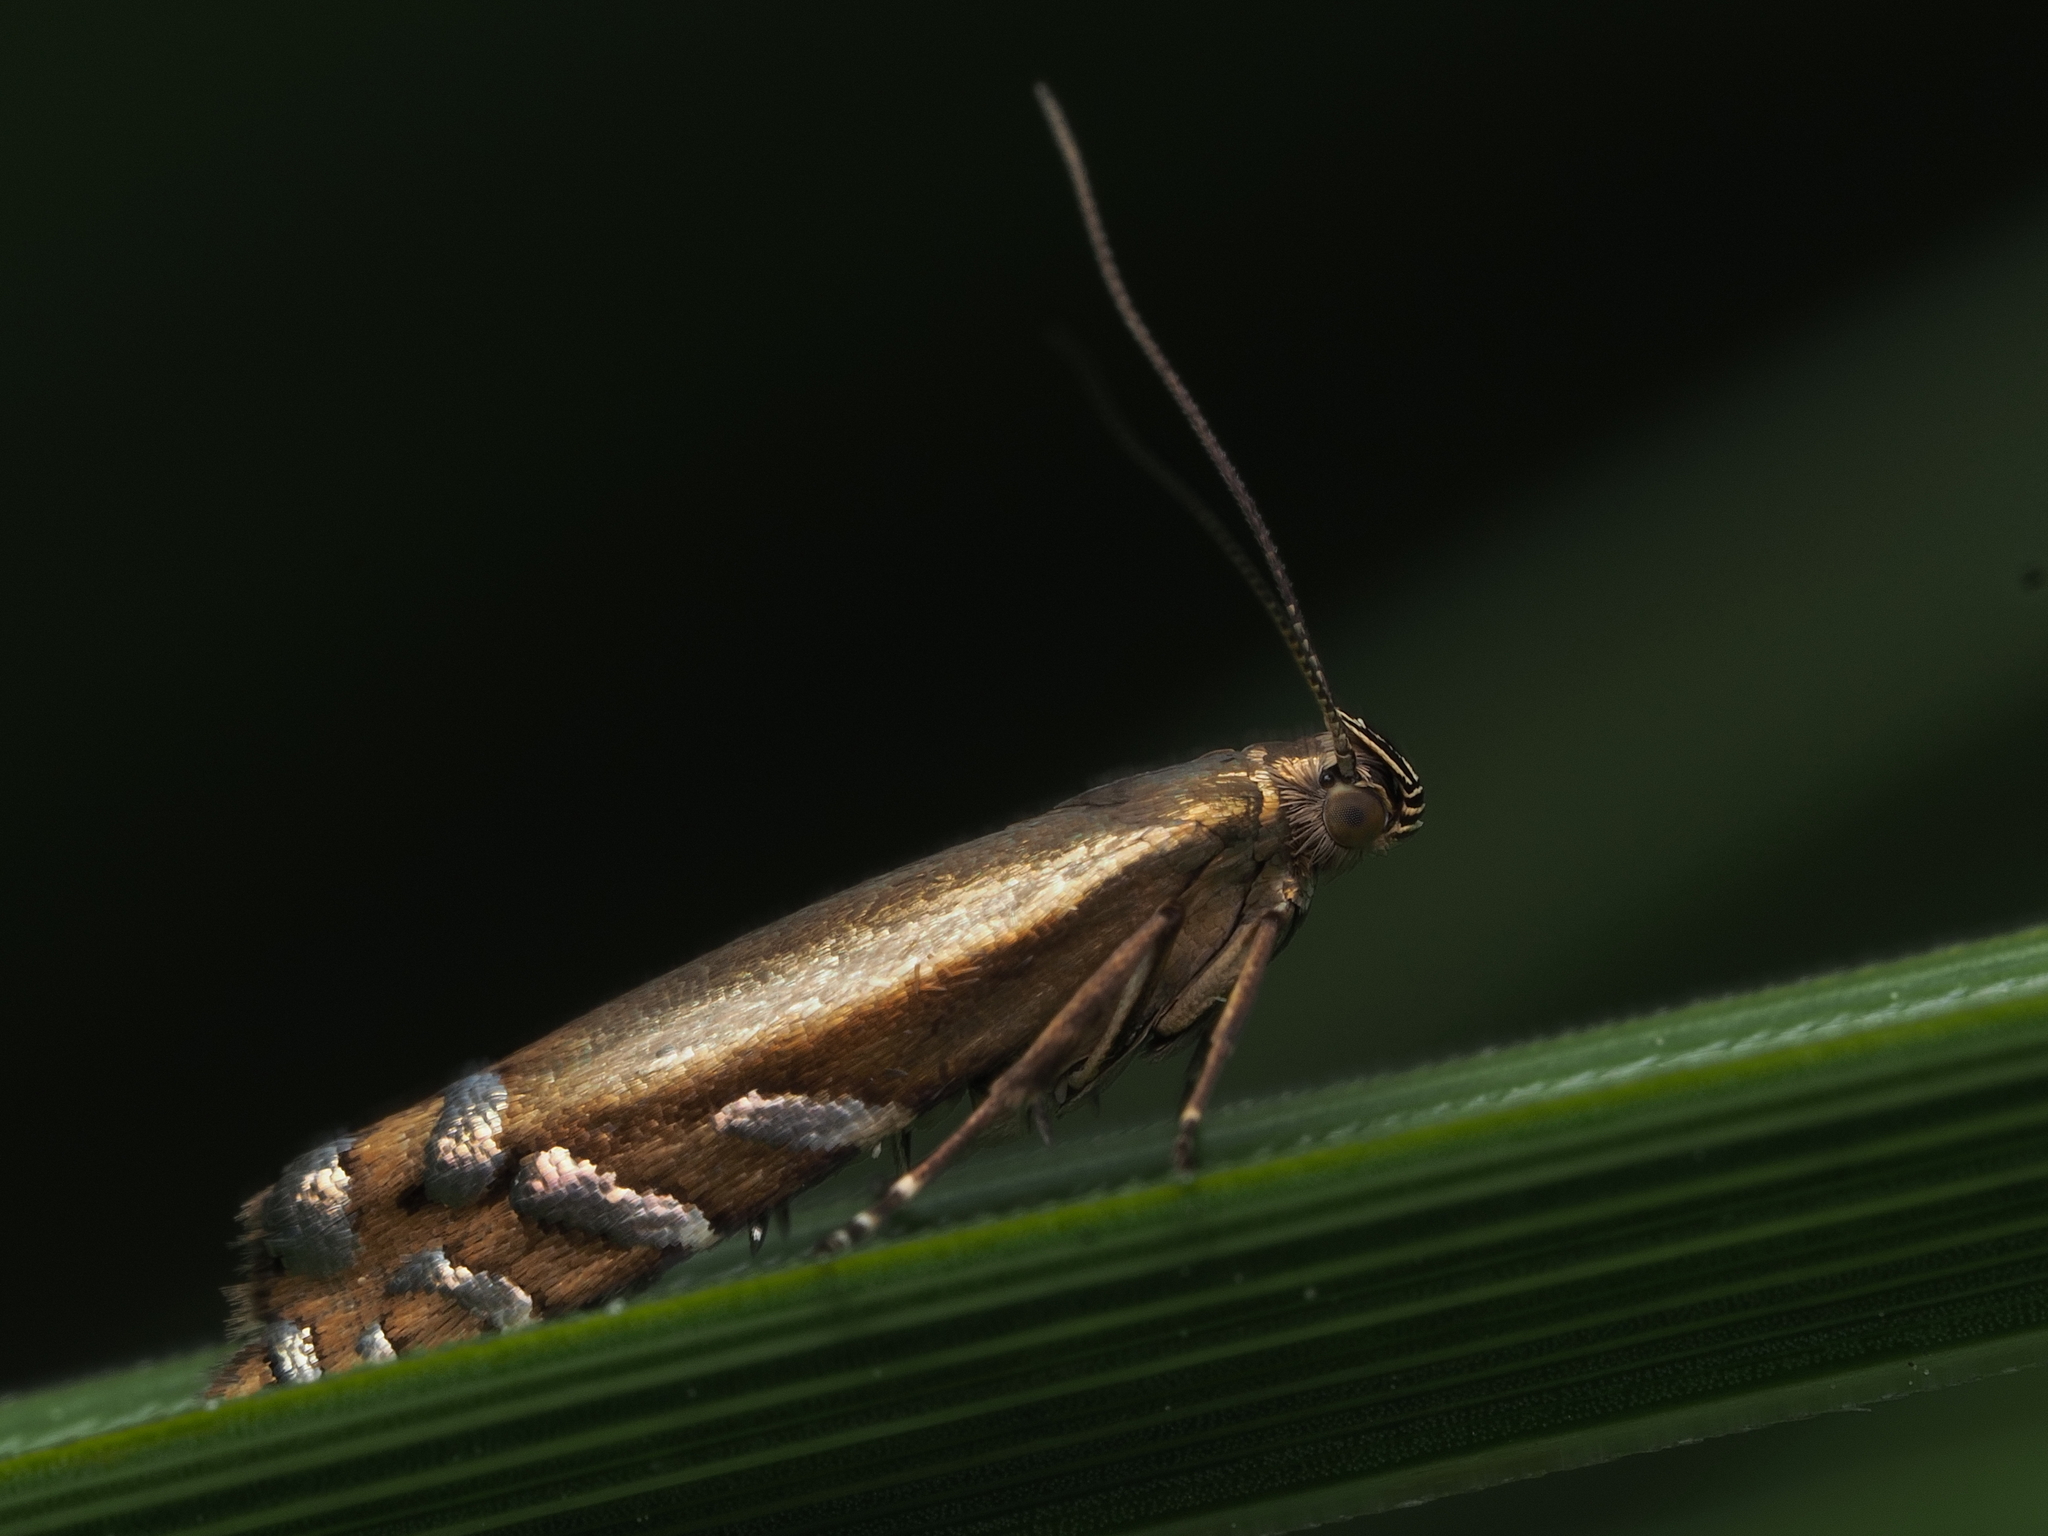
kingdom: Animalia
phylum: Arthropoda
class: Insecta
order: Lepidoptera
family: Glyphipterigidae
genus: Glyphipterix
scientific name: Glyphipterix scintilella
